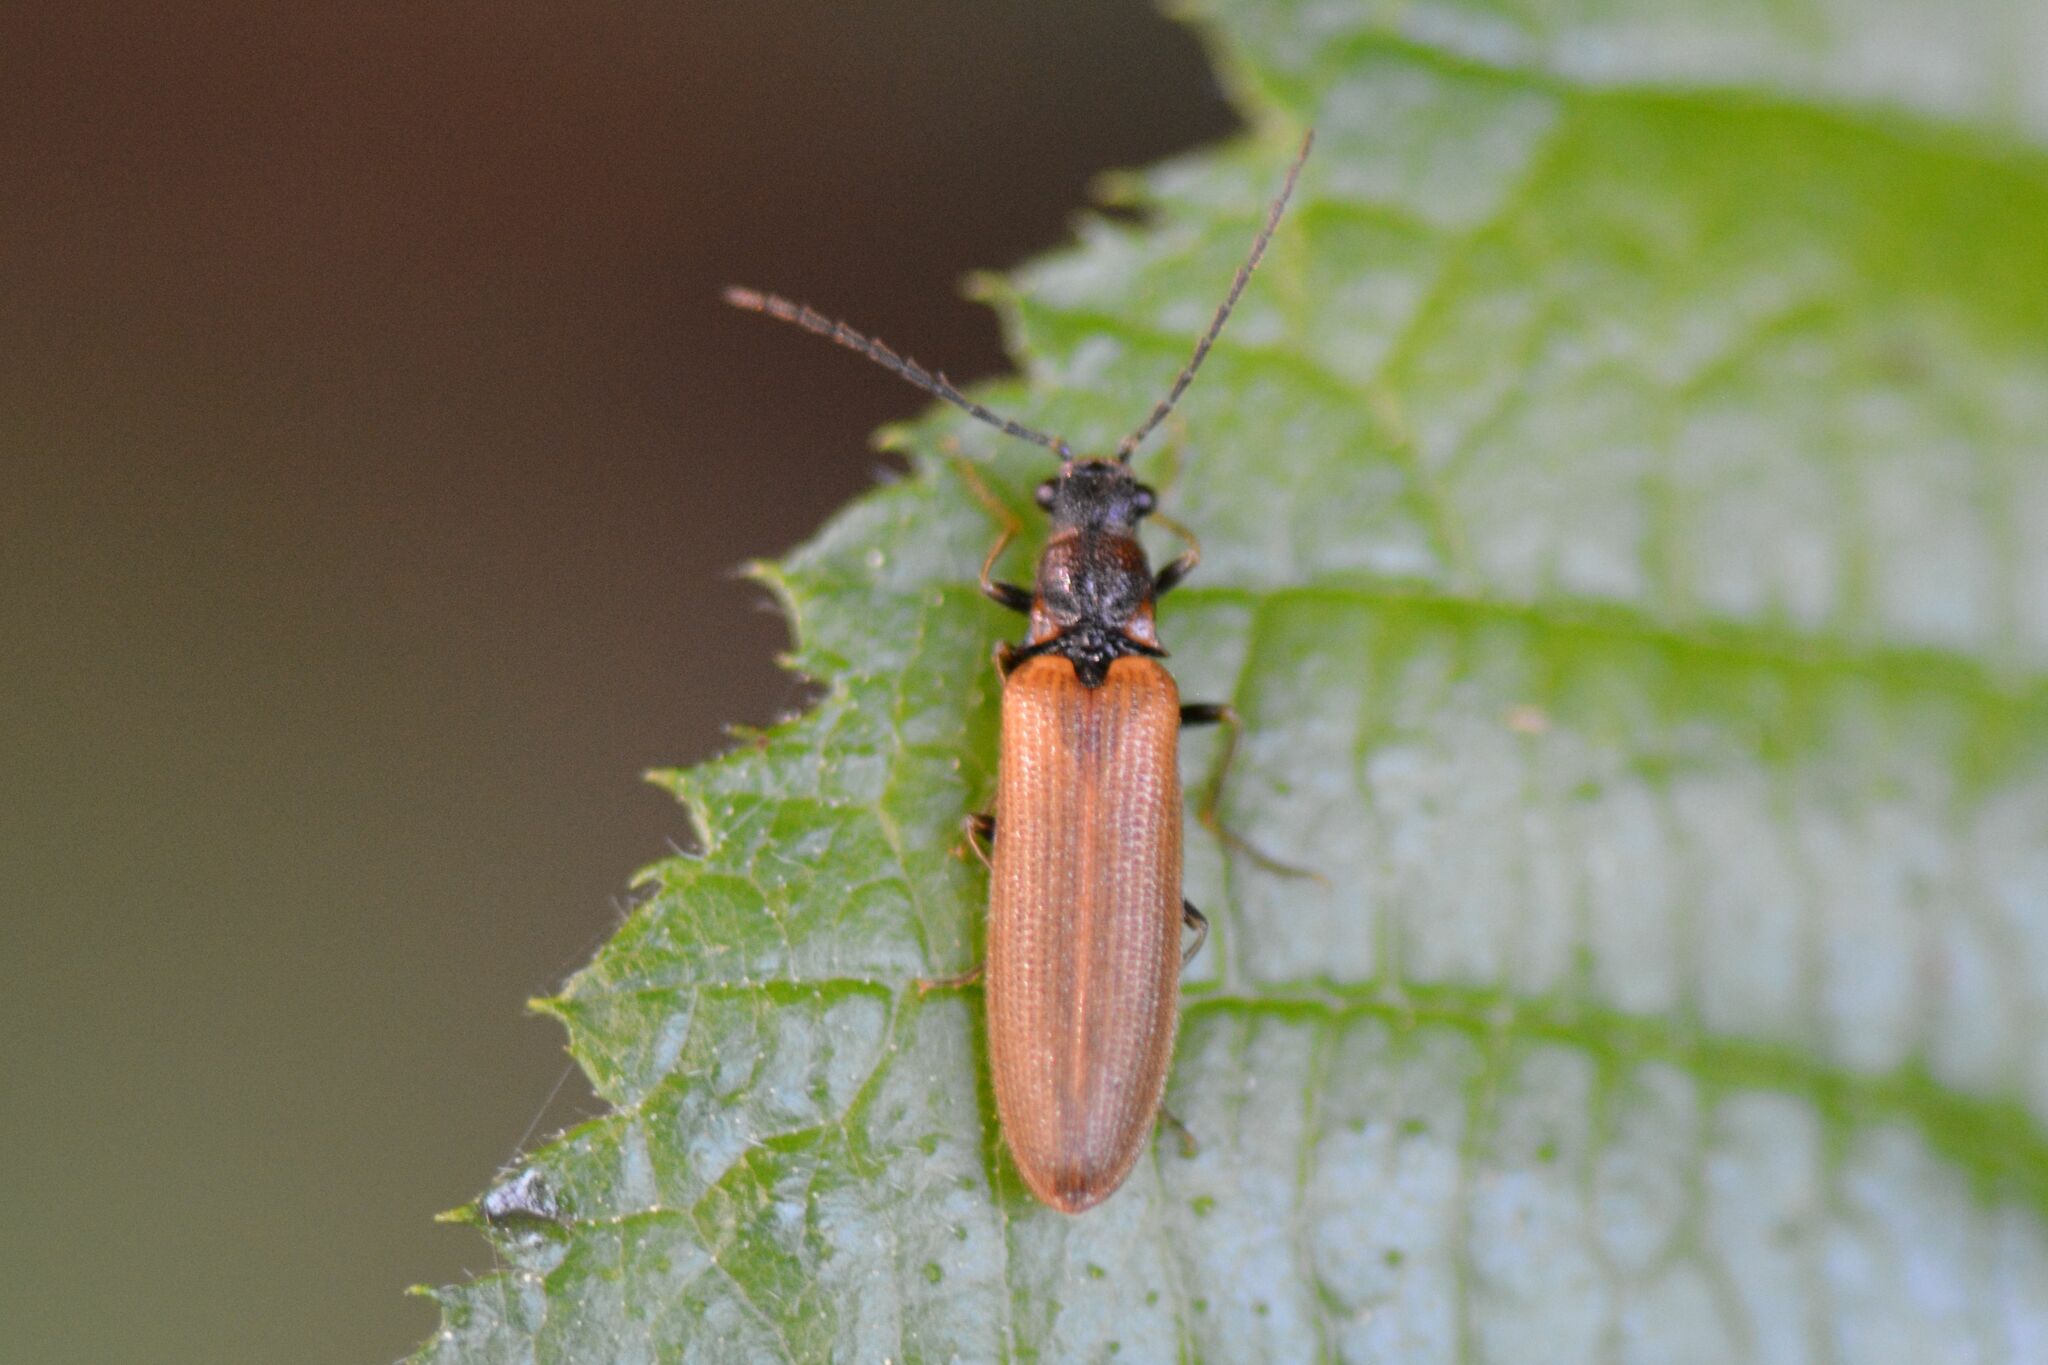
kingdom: Animalia
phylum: Arthropoda
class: Insecta
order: Coleoptera
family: Elateridae
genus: Denticollis
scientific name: Denticollis linearis
